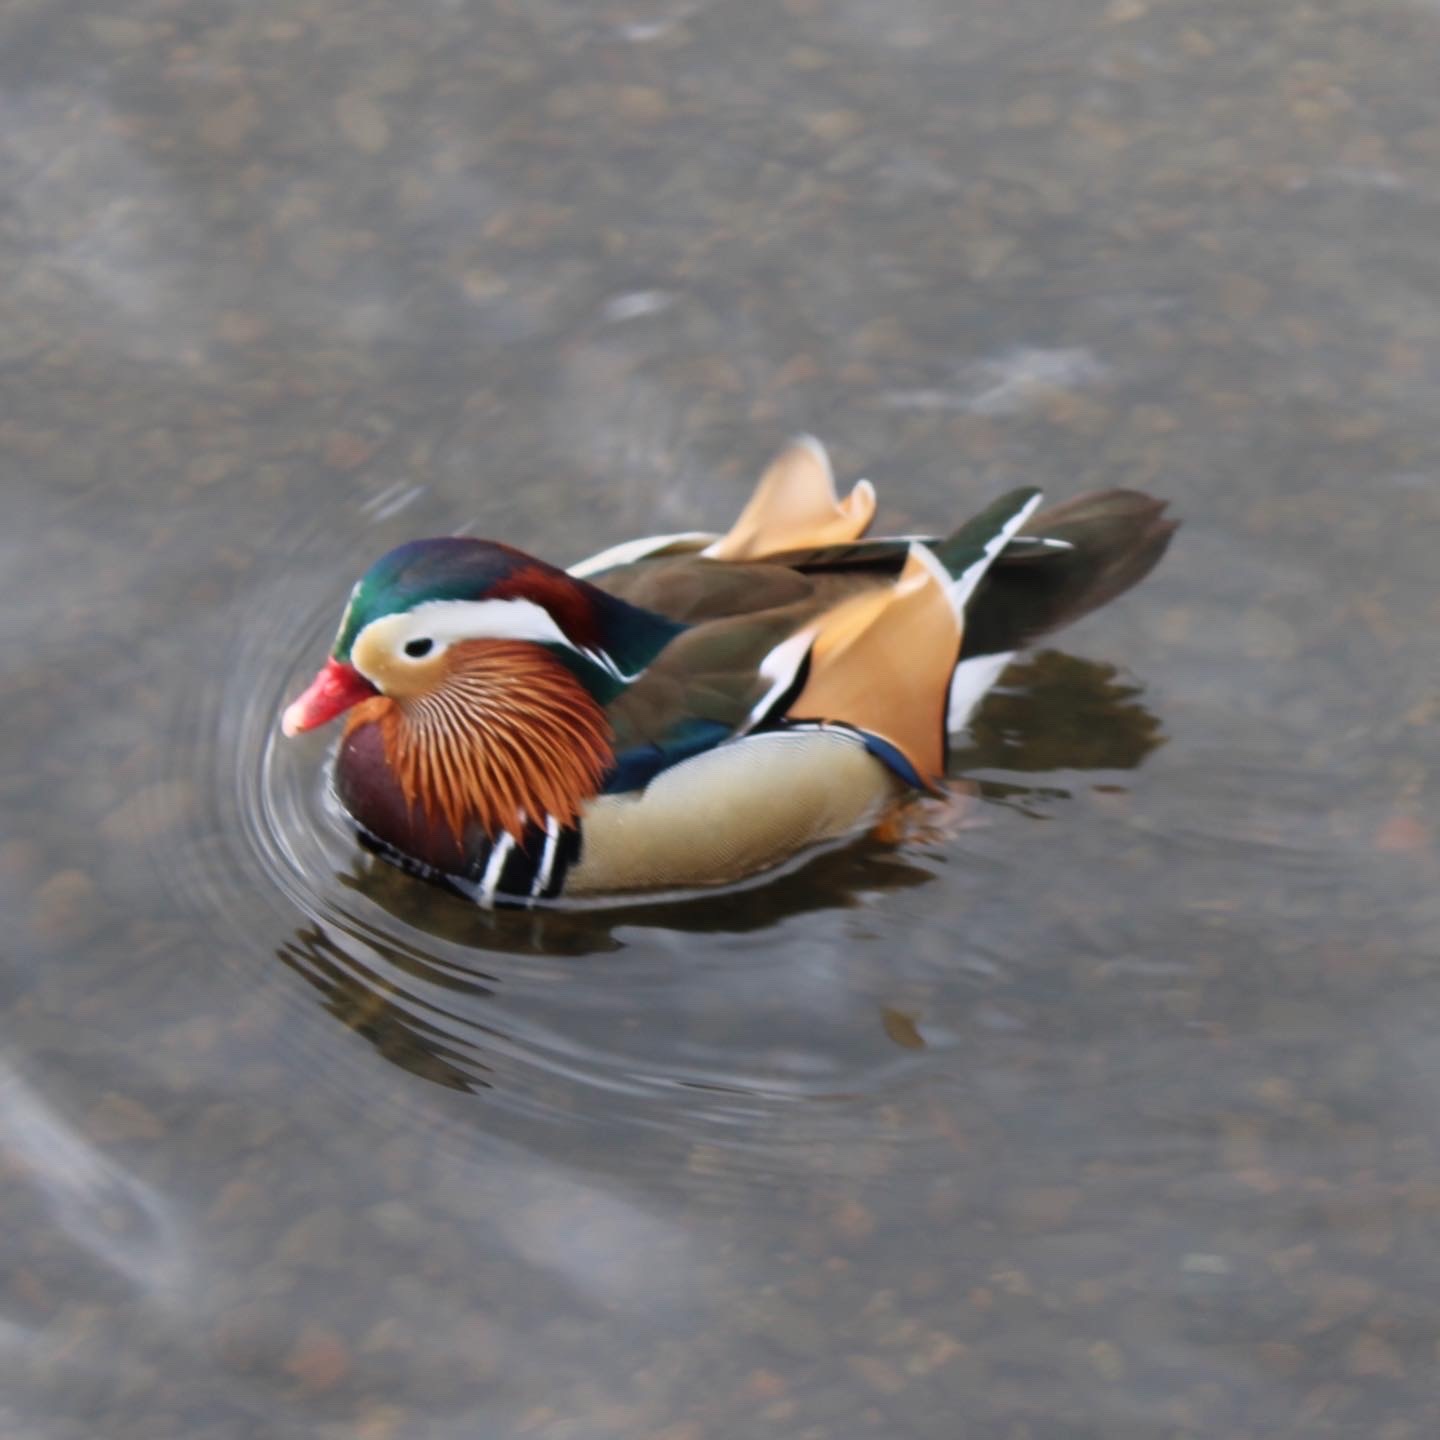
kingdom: Animalia
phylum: Chordata
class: Aves
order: Anseriformes
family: Anatidae
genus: Aix
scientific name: Aix galericulata
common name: Mandarin duck
